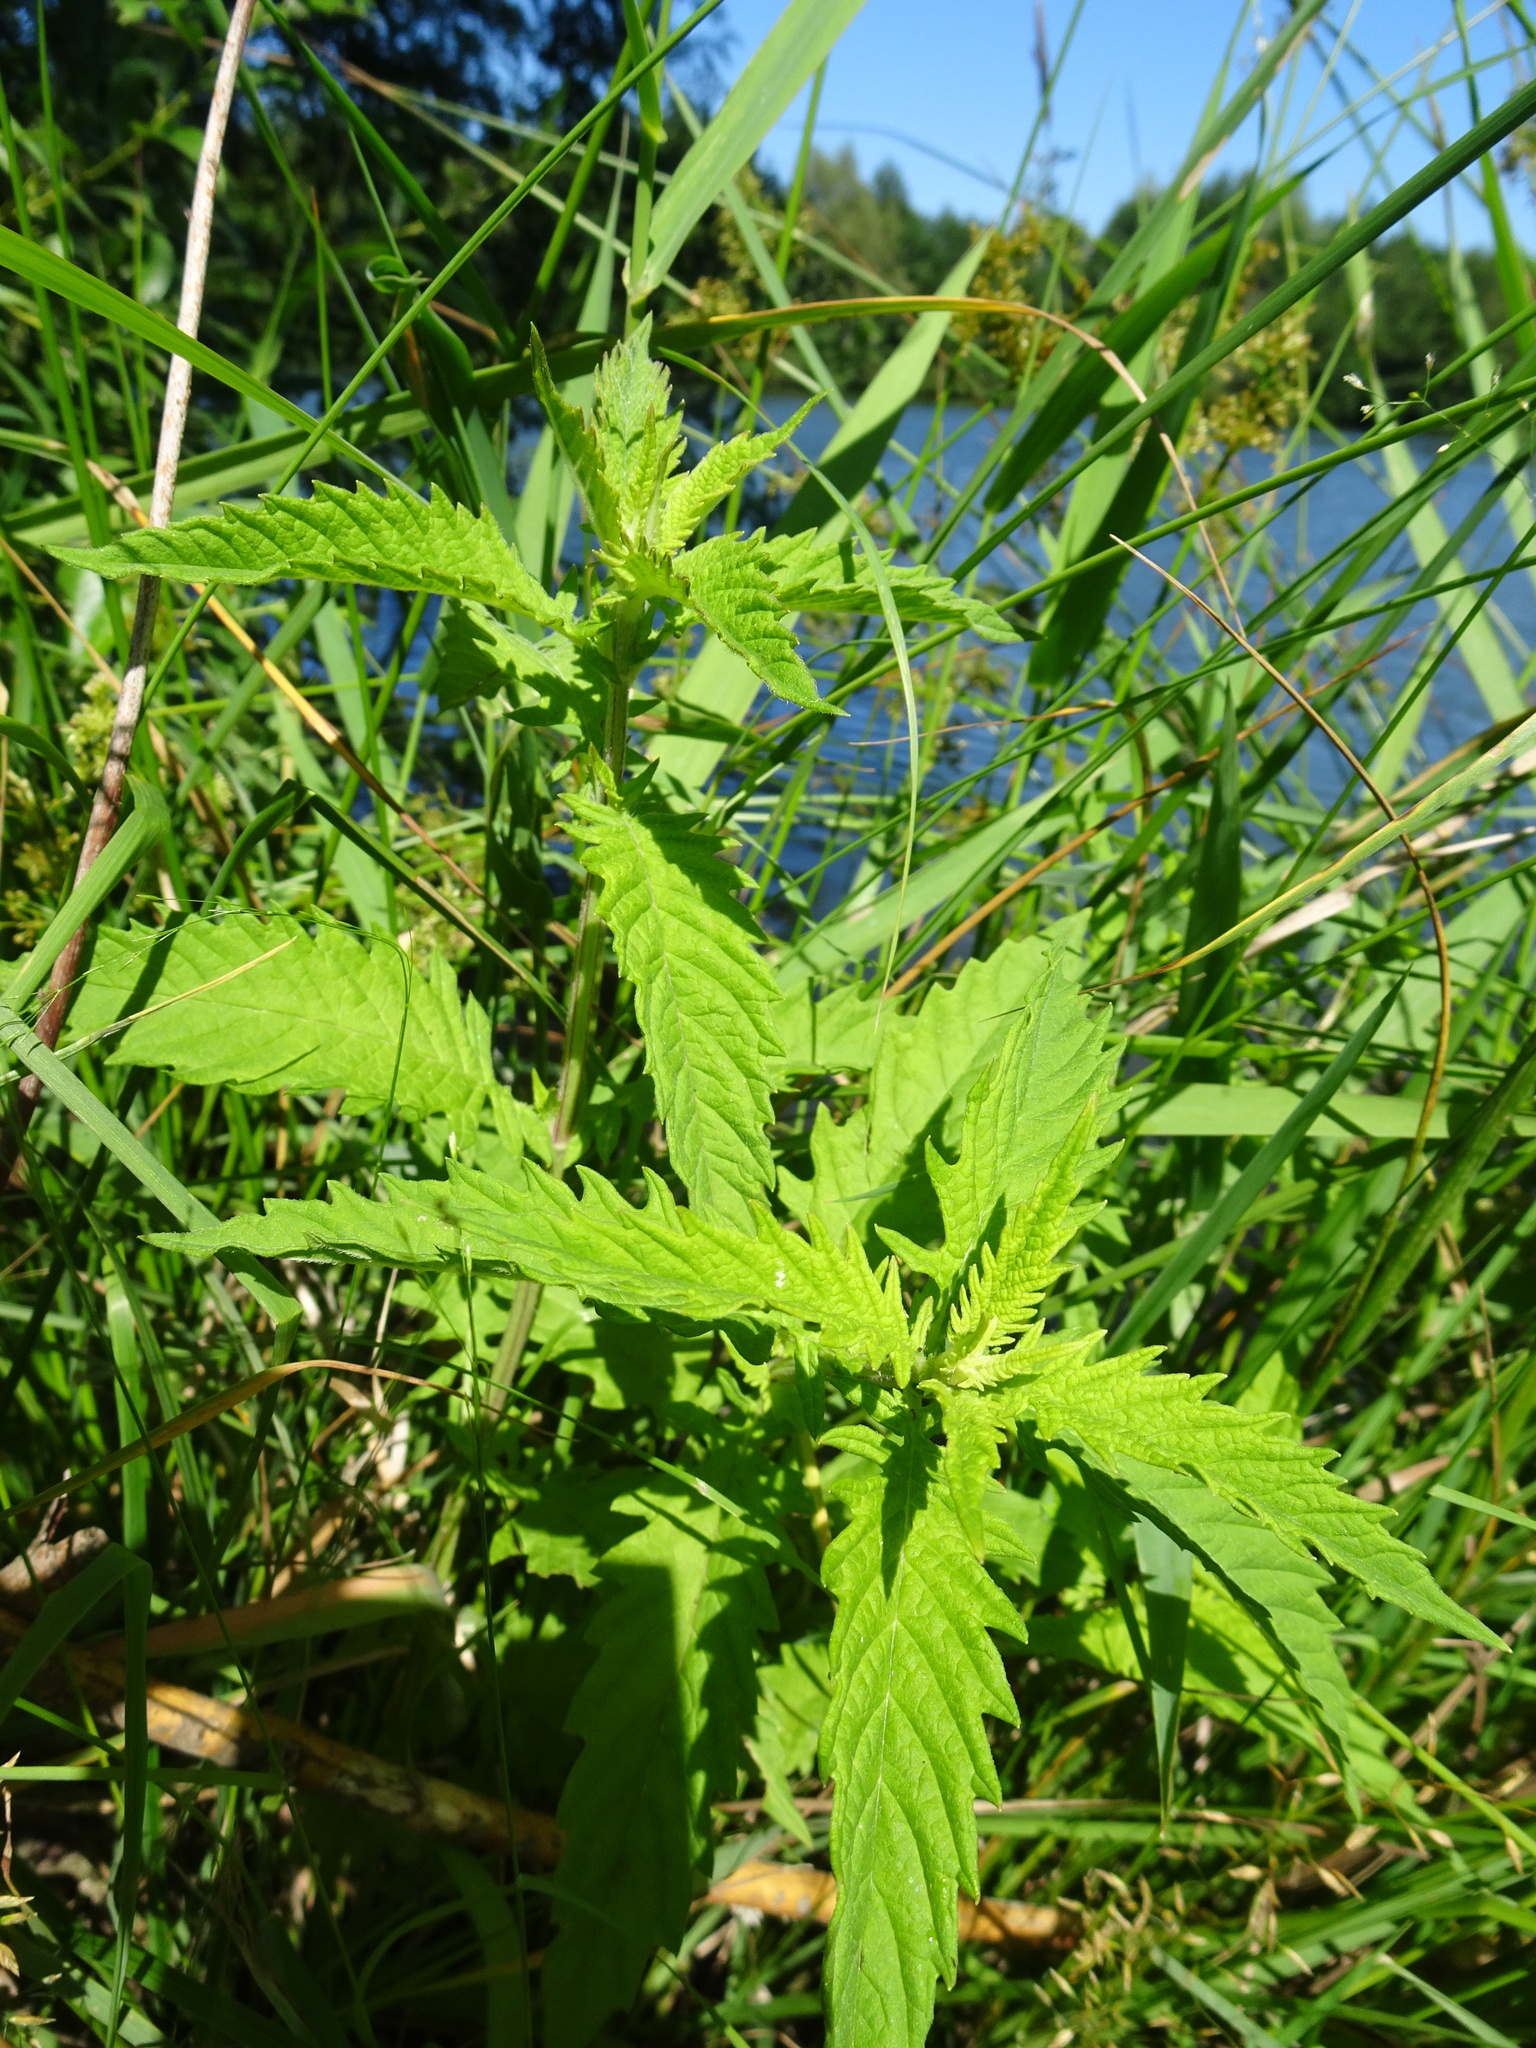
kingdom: Plantae
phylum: Tracheophyta
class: Magnoliopsida
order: Lamiales
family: Lamiaceae
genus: Lycopus
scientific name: Lycopus europaeus
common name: European bugleweed
